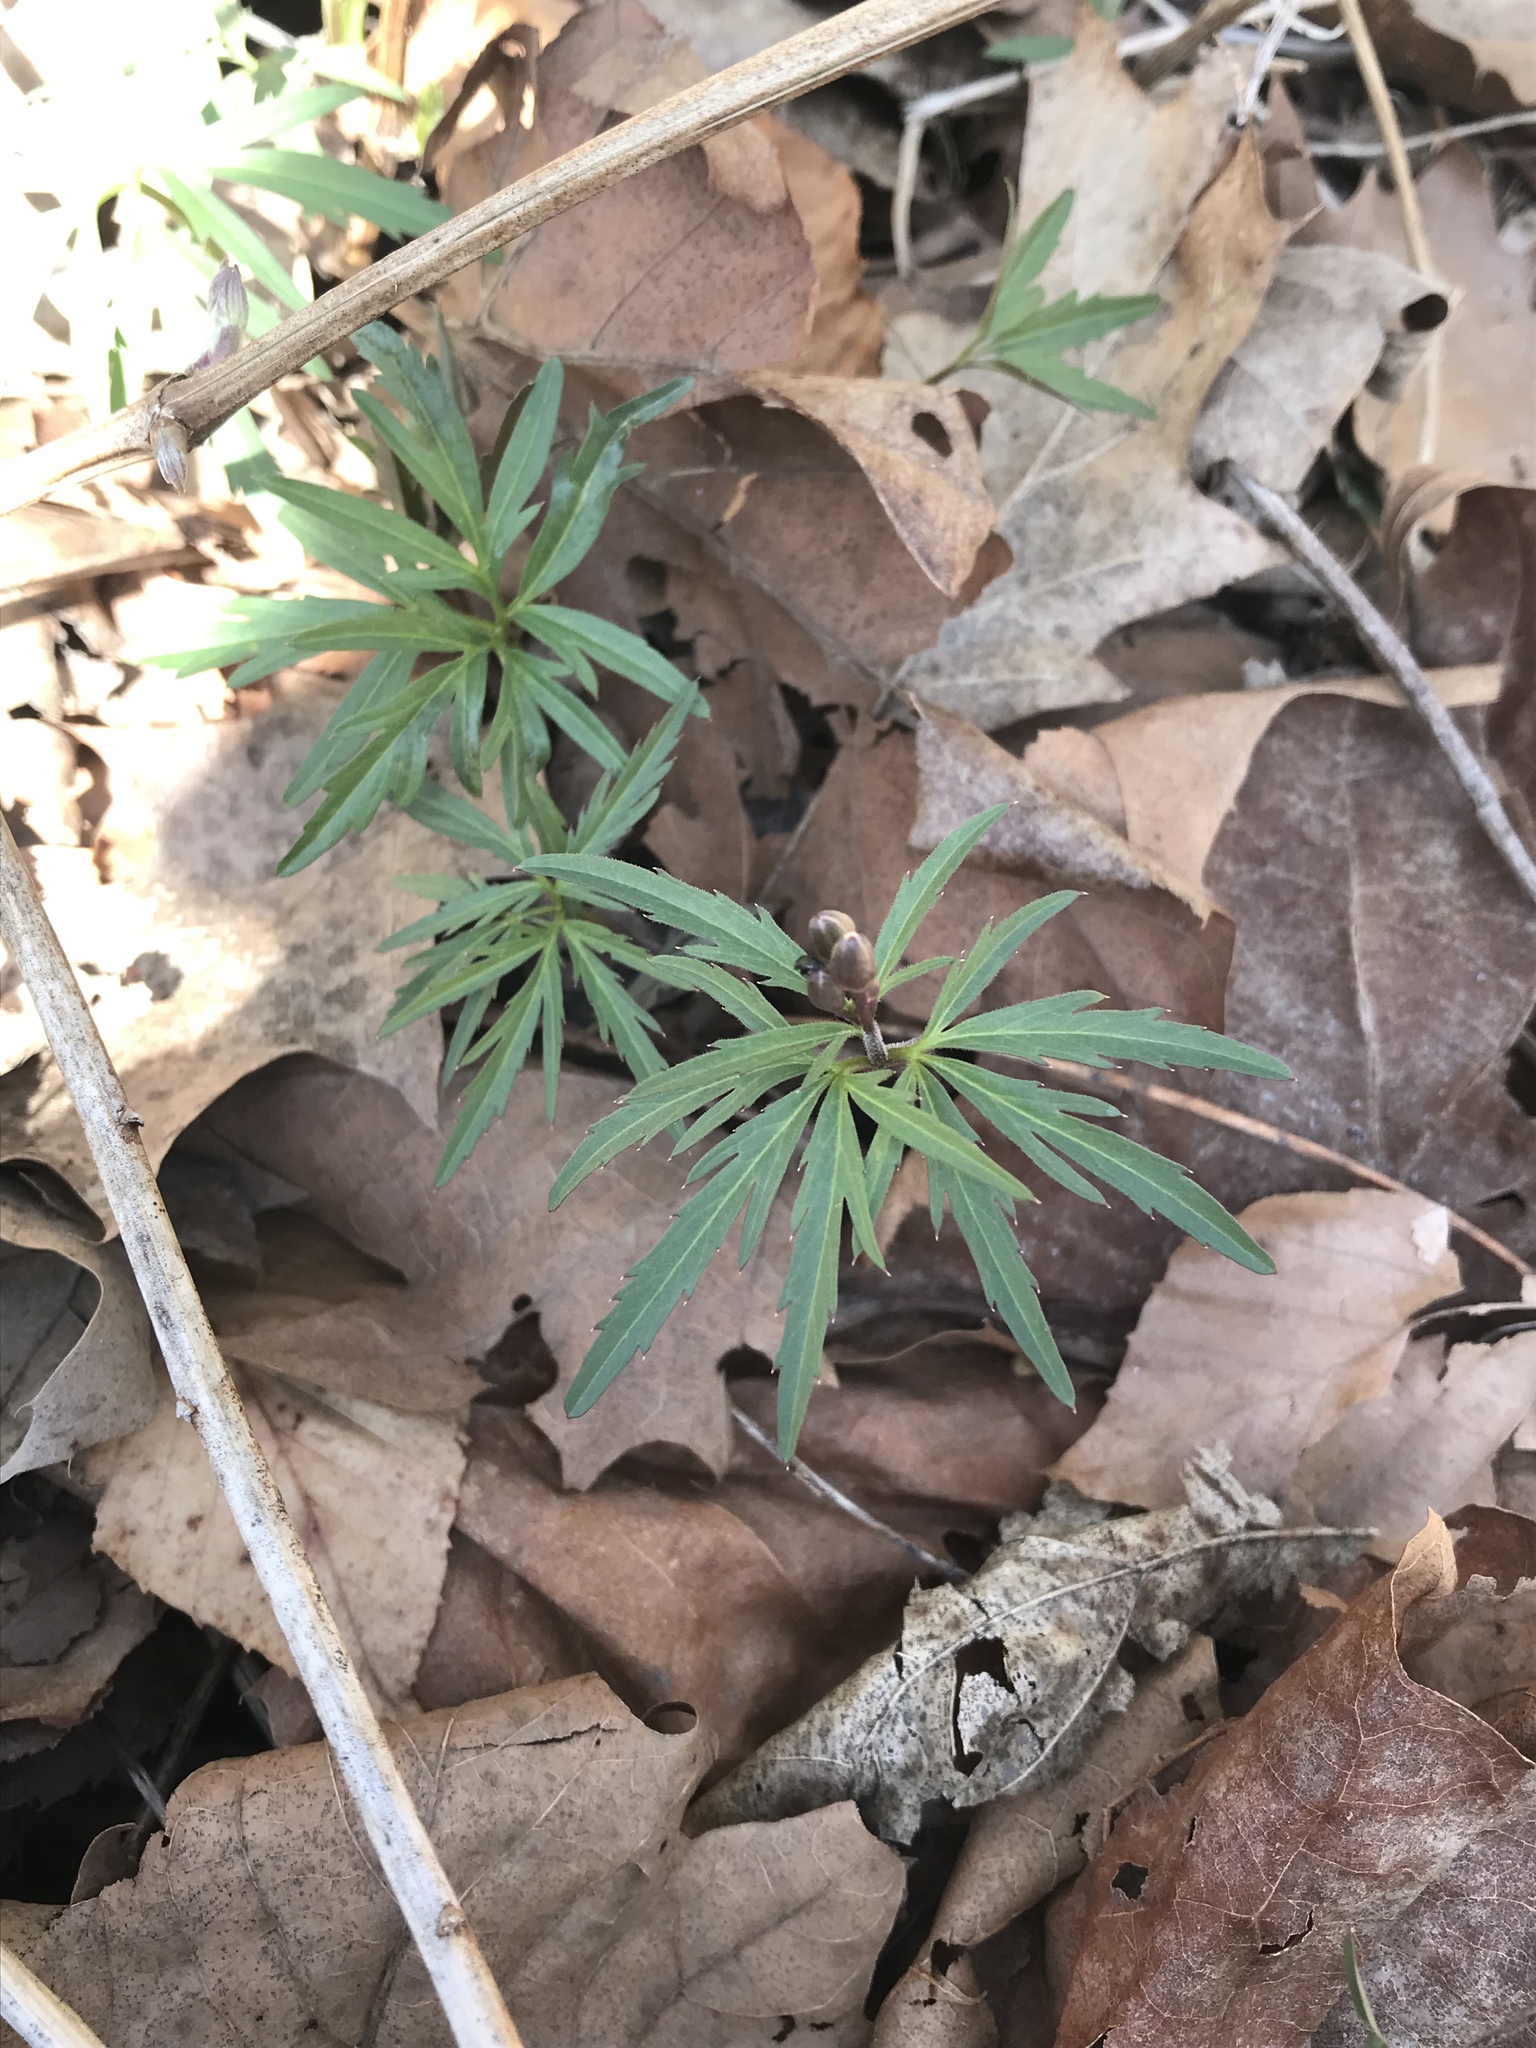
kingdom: Plantae
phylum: Tracheophyta
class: Magnoliopsida
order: Brassicales
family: Brassicaceae
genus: Cardamine
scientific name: Cardamine concatenata
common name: Cut-leaf toothcup
